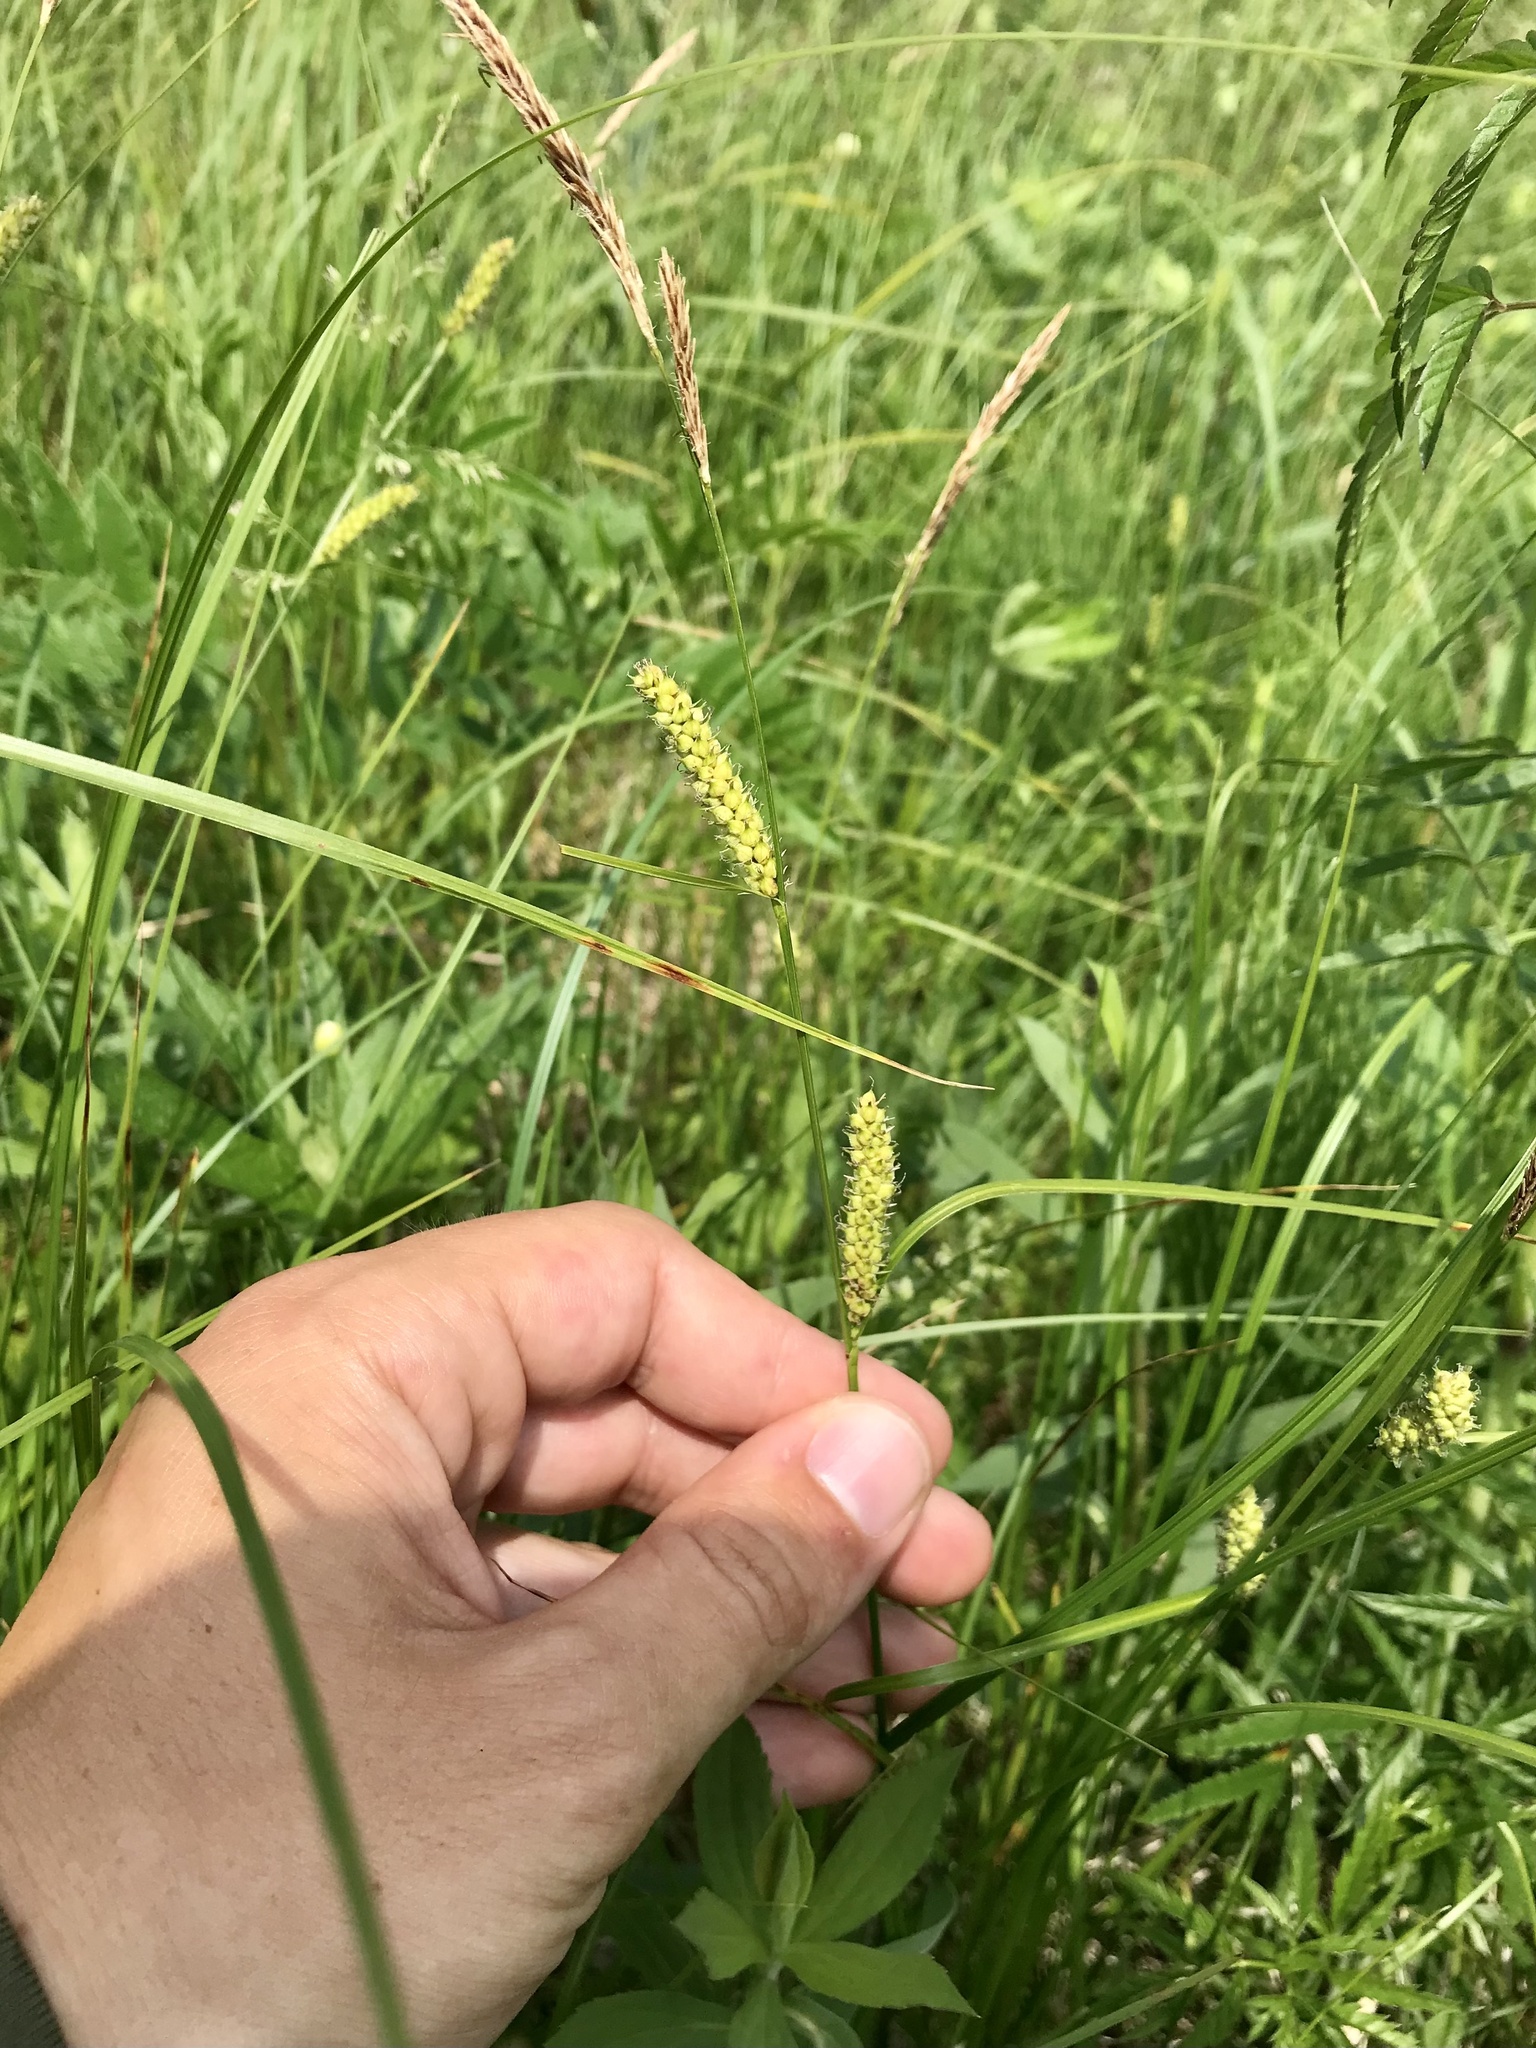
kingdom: Plantae
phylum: Tracheophyta
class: Liliopsida
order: Poales
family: Cyperaceae
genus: Carex
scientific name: Carex pellita
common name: Woolly sedge
